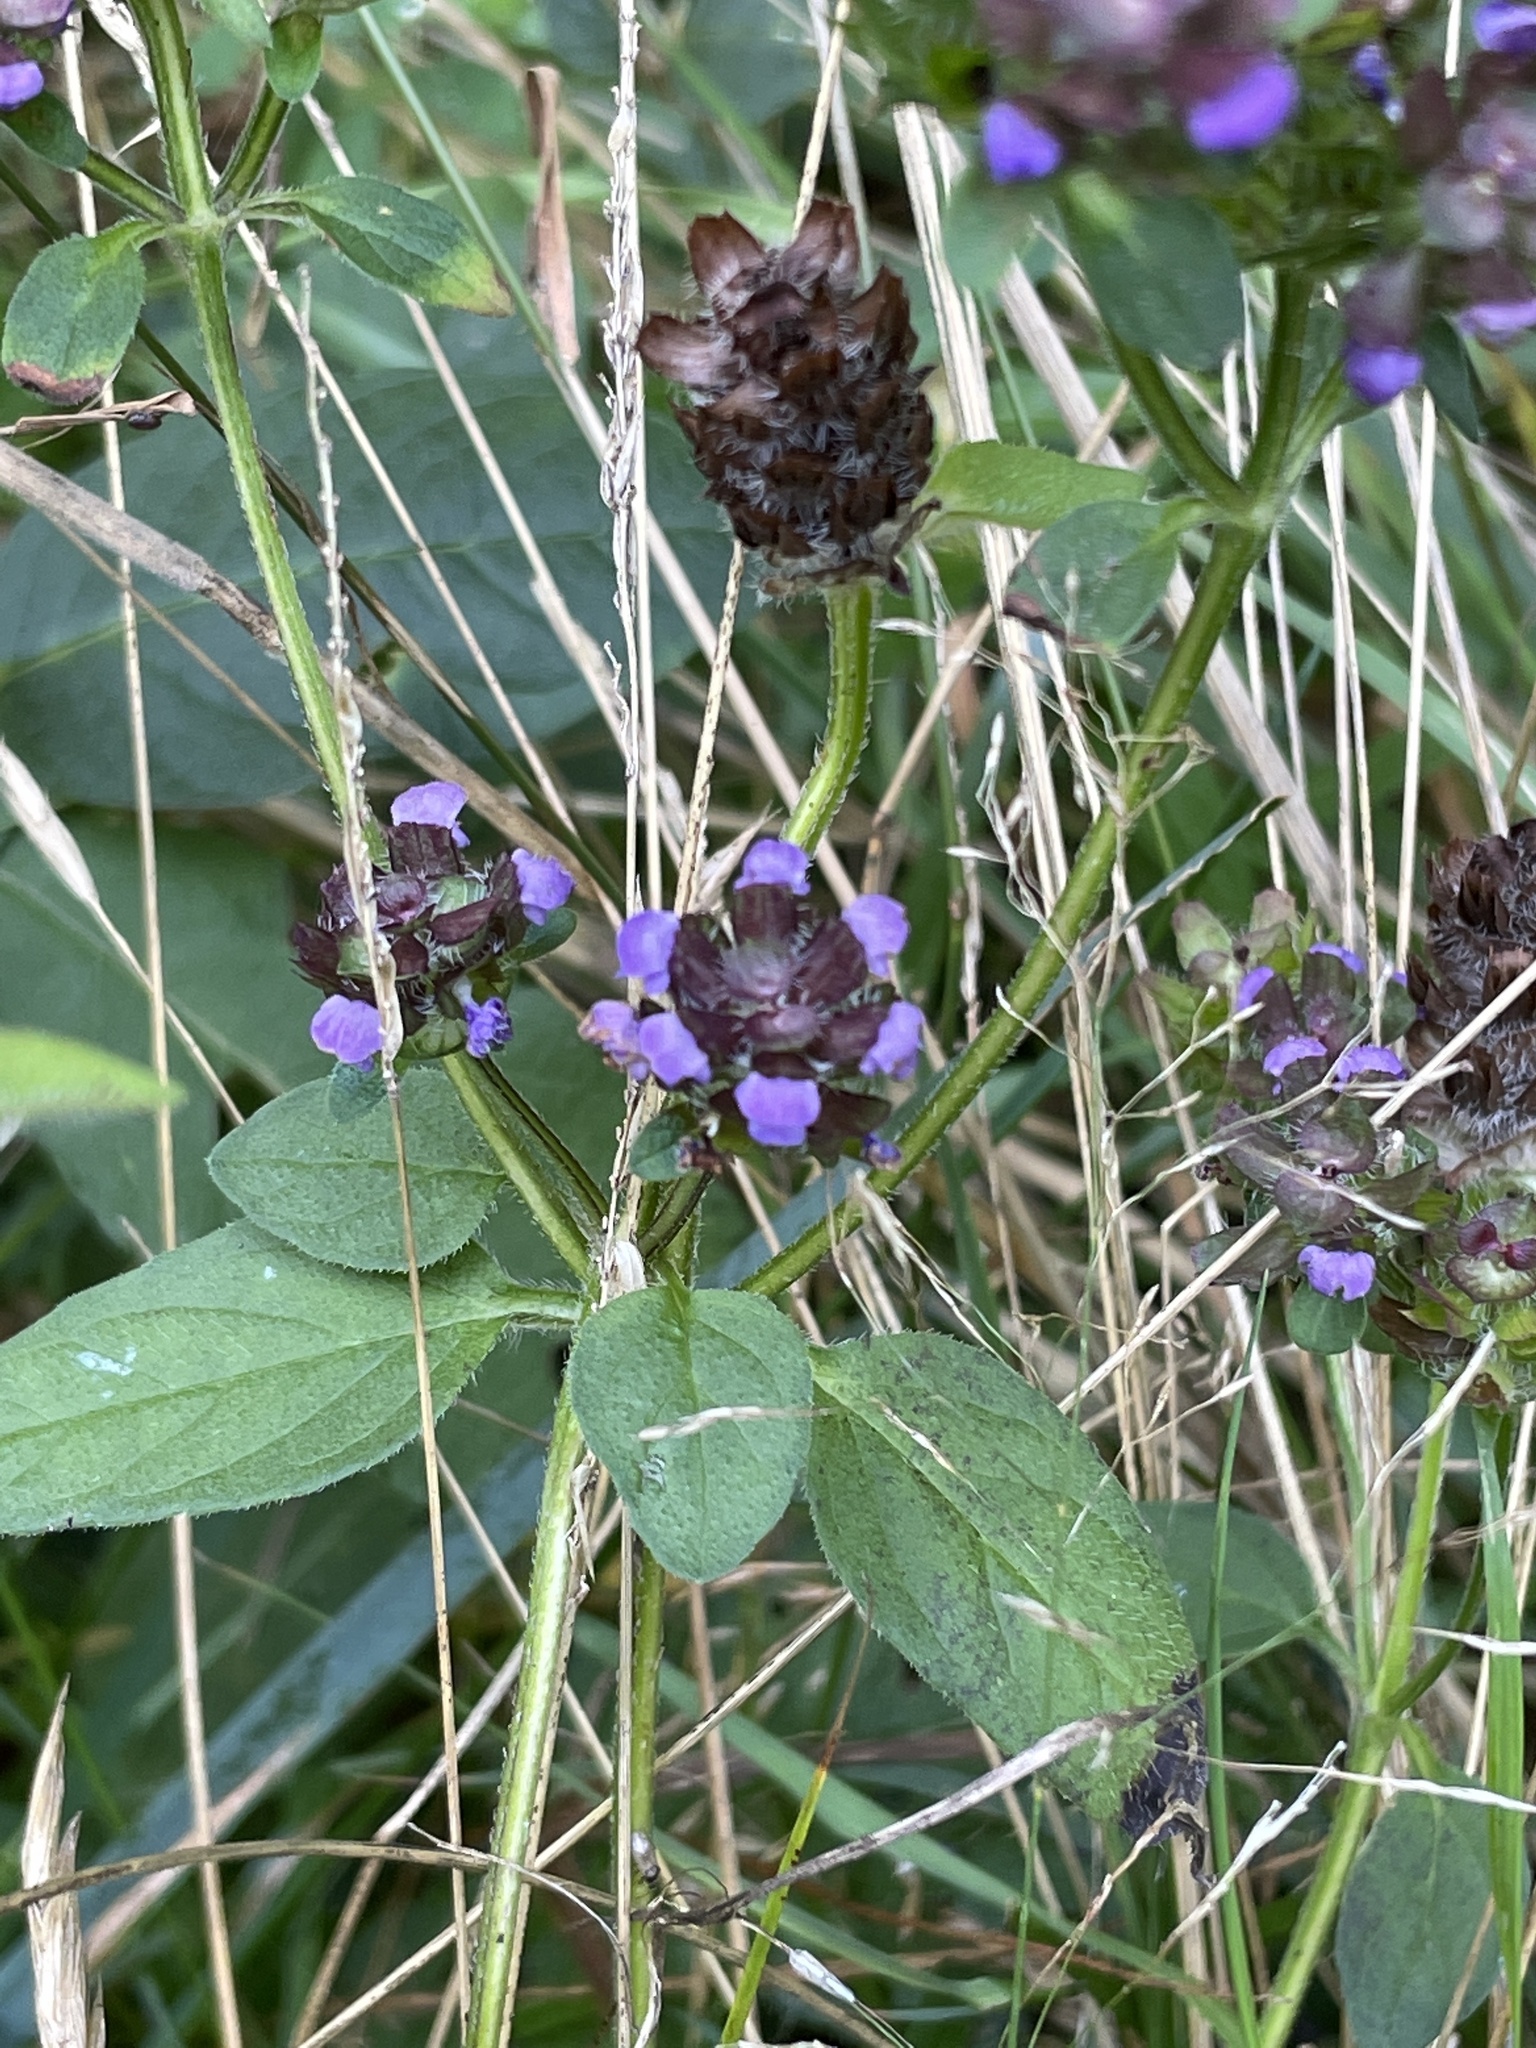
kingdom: Plantae
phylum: Tracheophyta
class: Magnoliopsida
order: Lamiales
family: Lamiaceae
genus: Prunella
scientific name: Prunella vulgaris
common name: Heal-all
